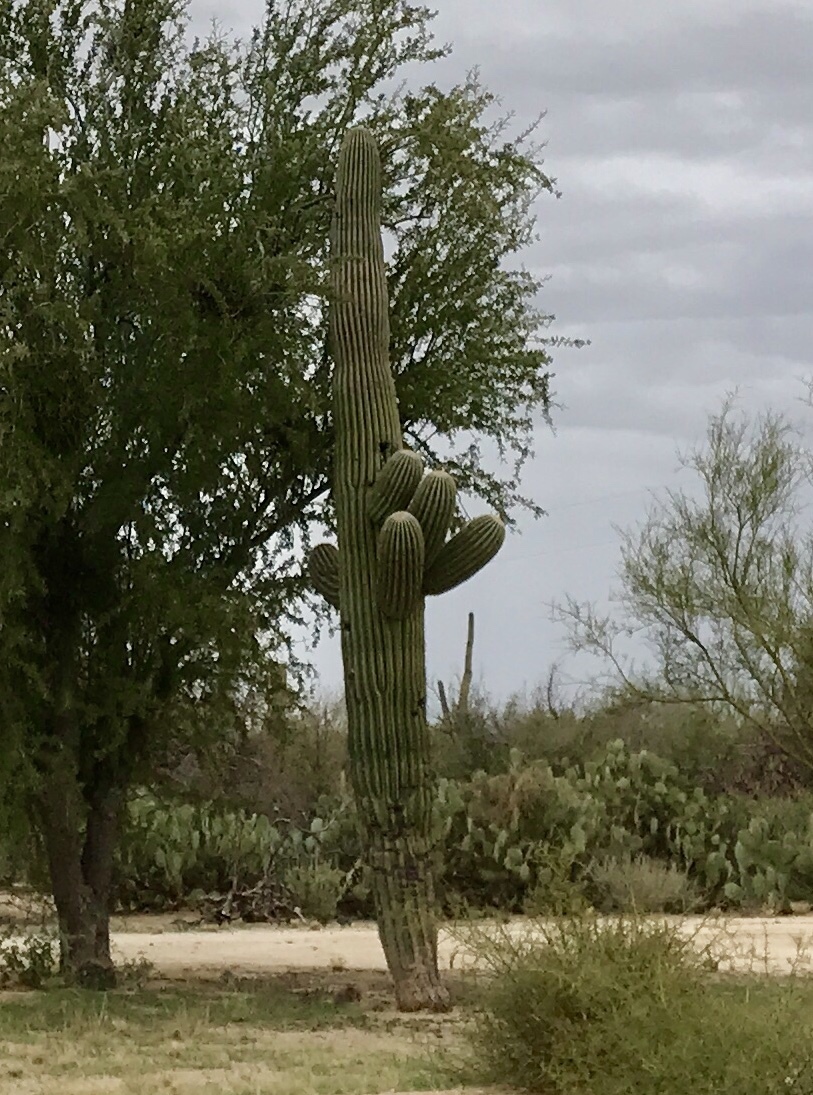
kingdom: Plantae
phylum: Tracheophyta
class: Magnoliopsida
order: Caryophyllales
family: Cactaceae
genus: Carnegiea
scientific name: Carnegiea gigantea
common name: Saguaro
